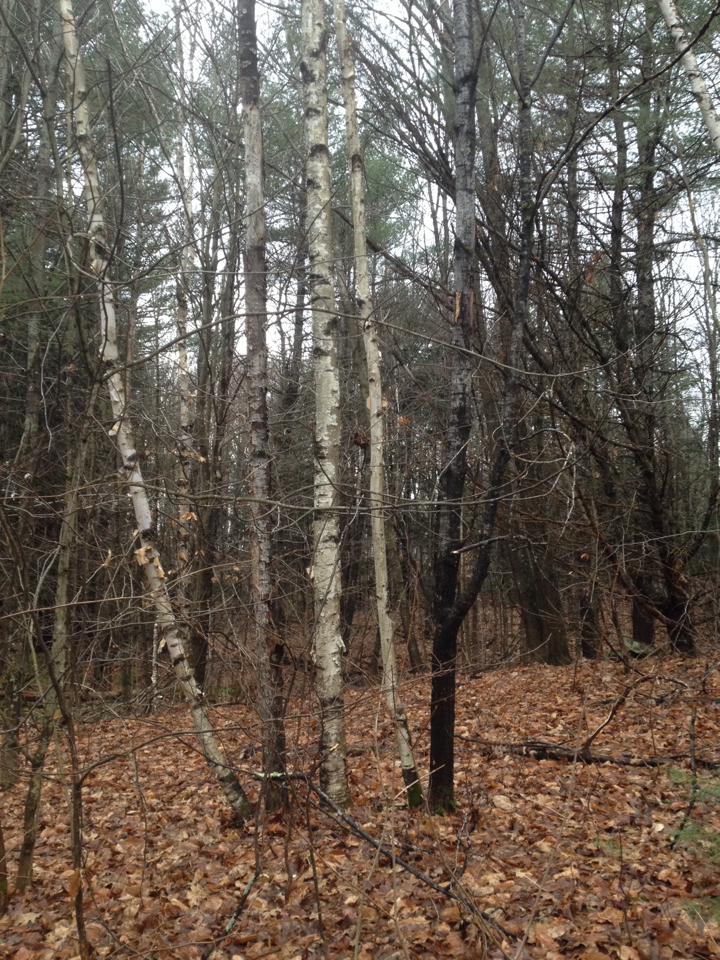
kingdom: Plantae
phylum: Tracheophyta
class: Magnoliopsida
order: Fagales
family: Betulaceae
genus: Betula
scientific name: Betula papyrifera
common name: Paper birch
